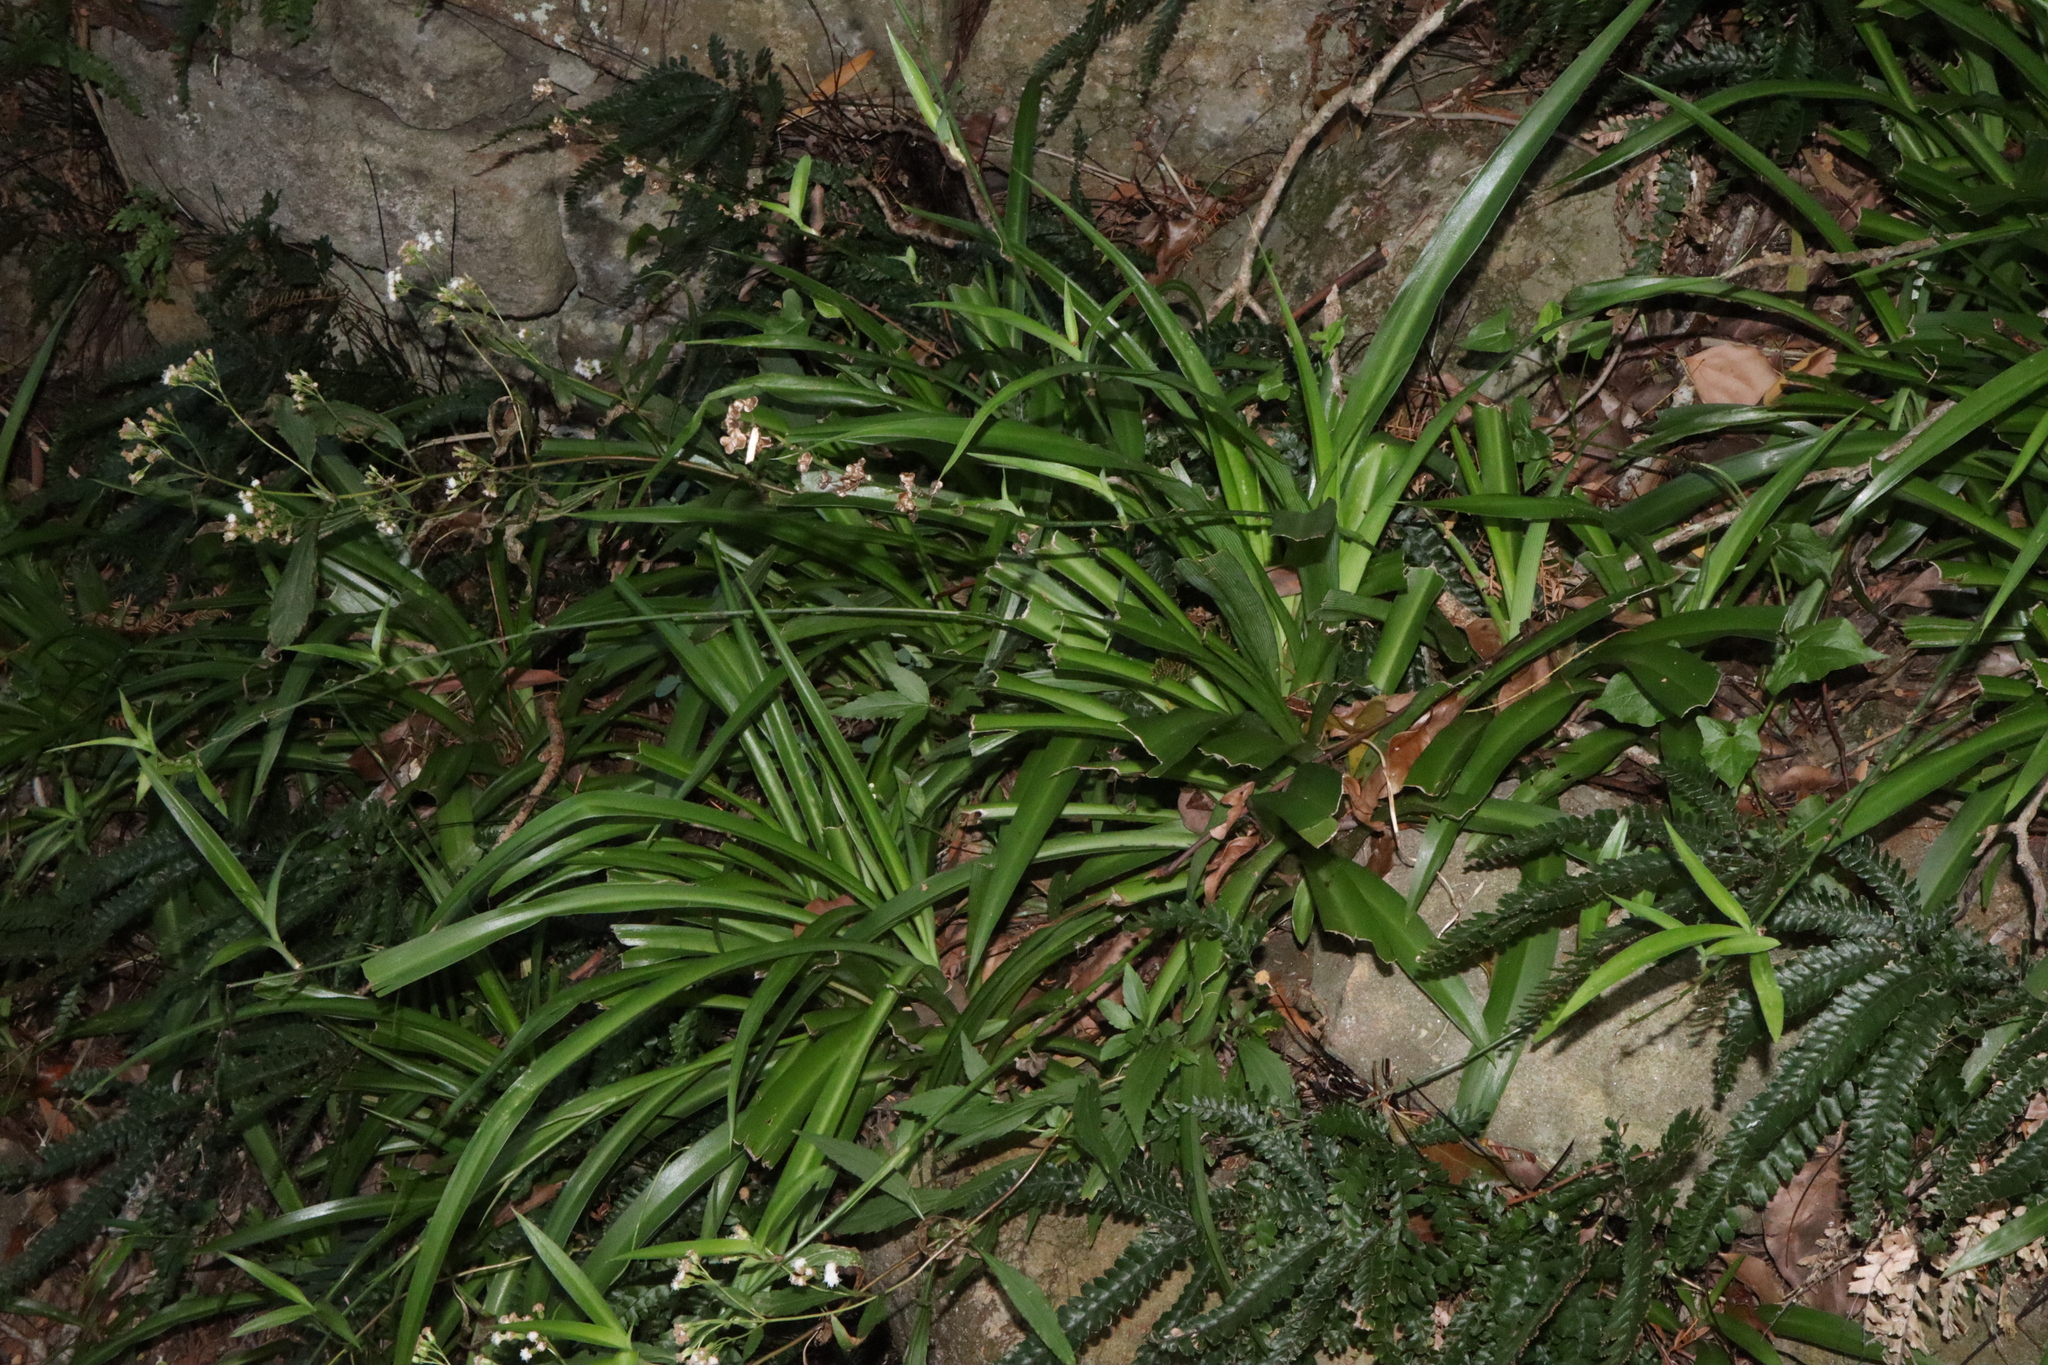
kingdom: Plantae
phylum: Tracheophyta
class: Liliopsida
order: Asparagales
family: Asparagaceae
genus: Chlorophytum
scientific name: Chlorophytum comosum
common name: Spider plant
